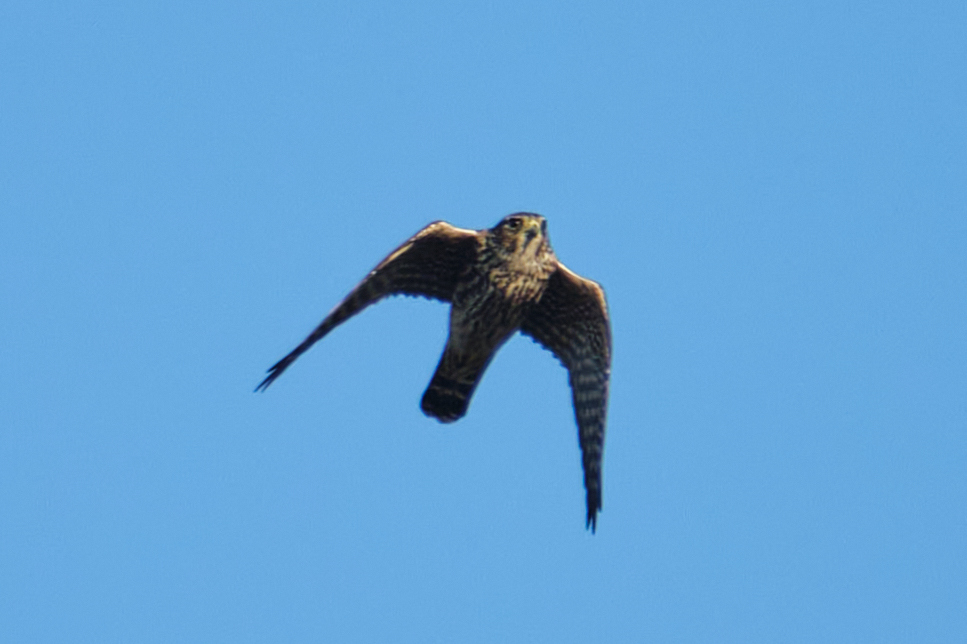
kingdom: Animalia
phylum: Chordata
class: Aves
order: Falconiformes
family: Falconidae
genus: Falco
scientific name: Falco columbarius
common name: Merlin
